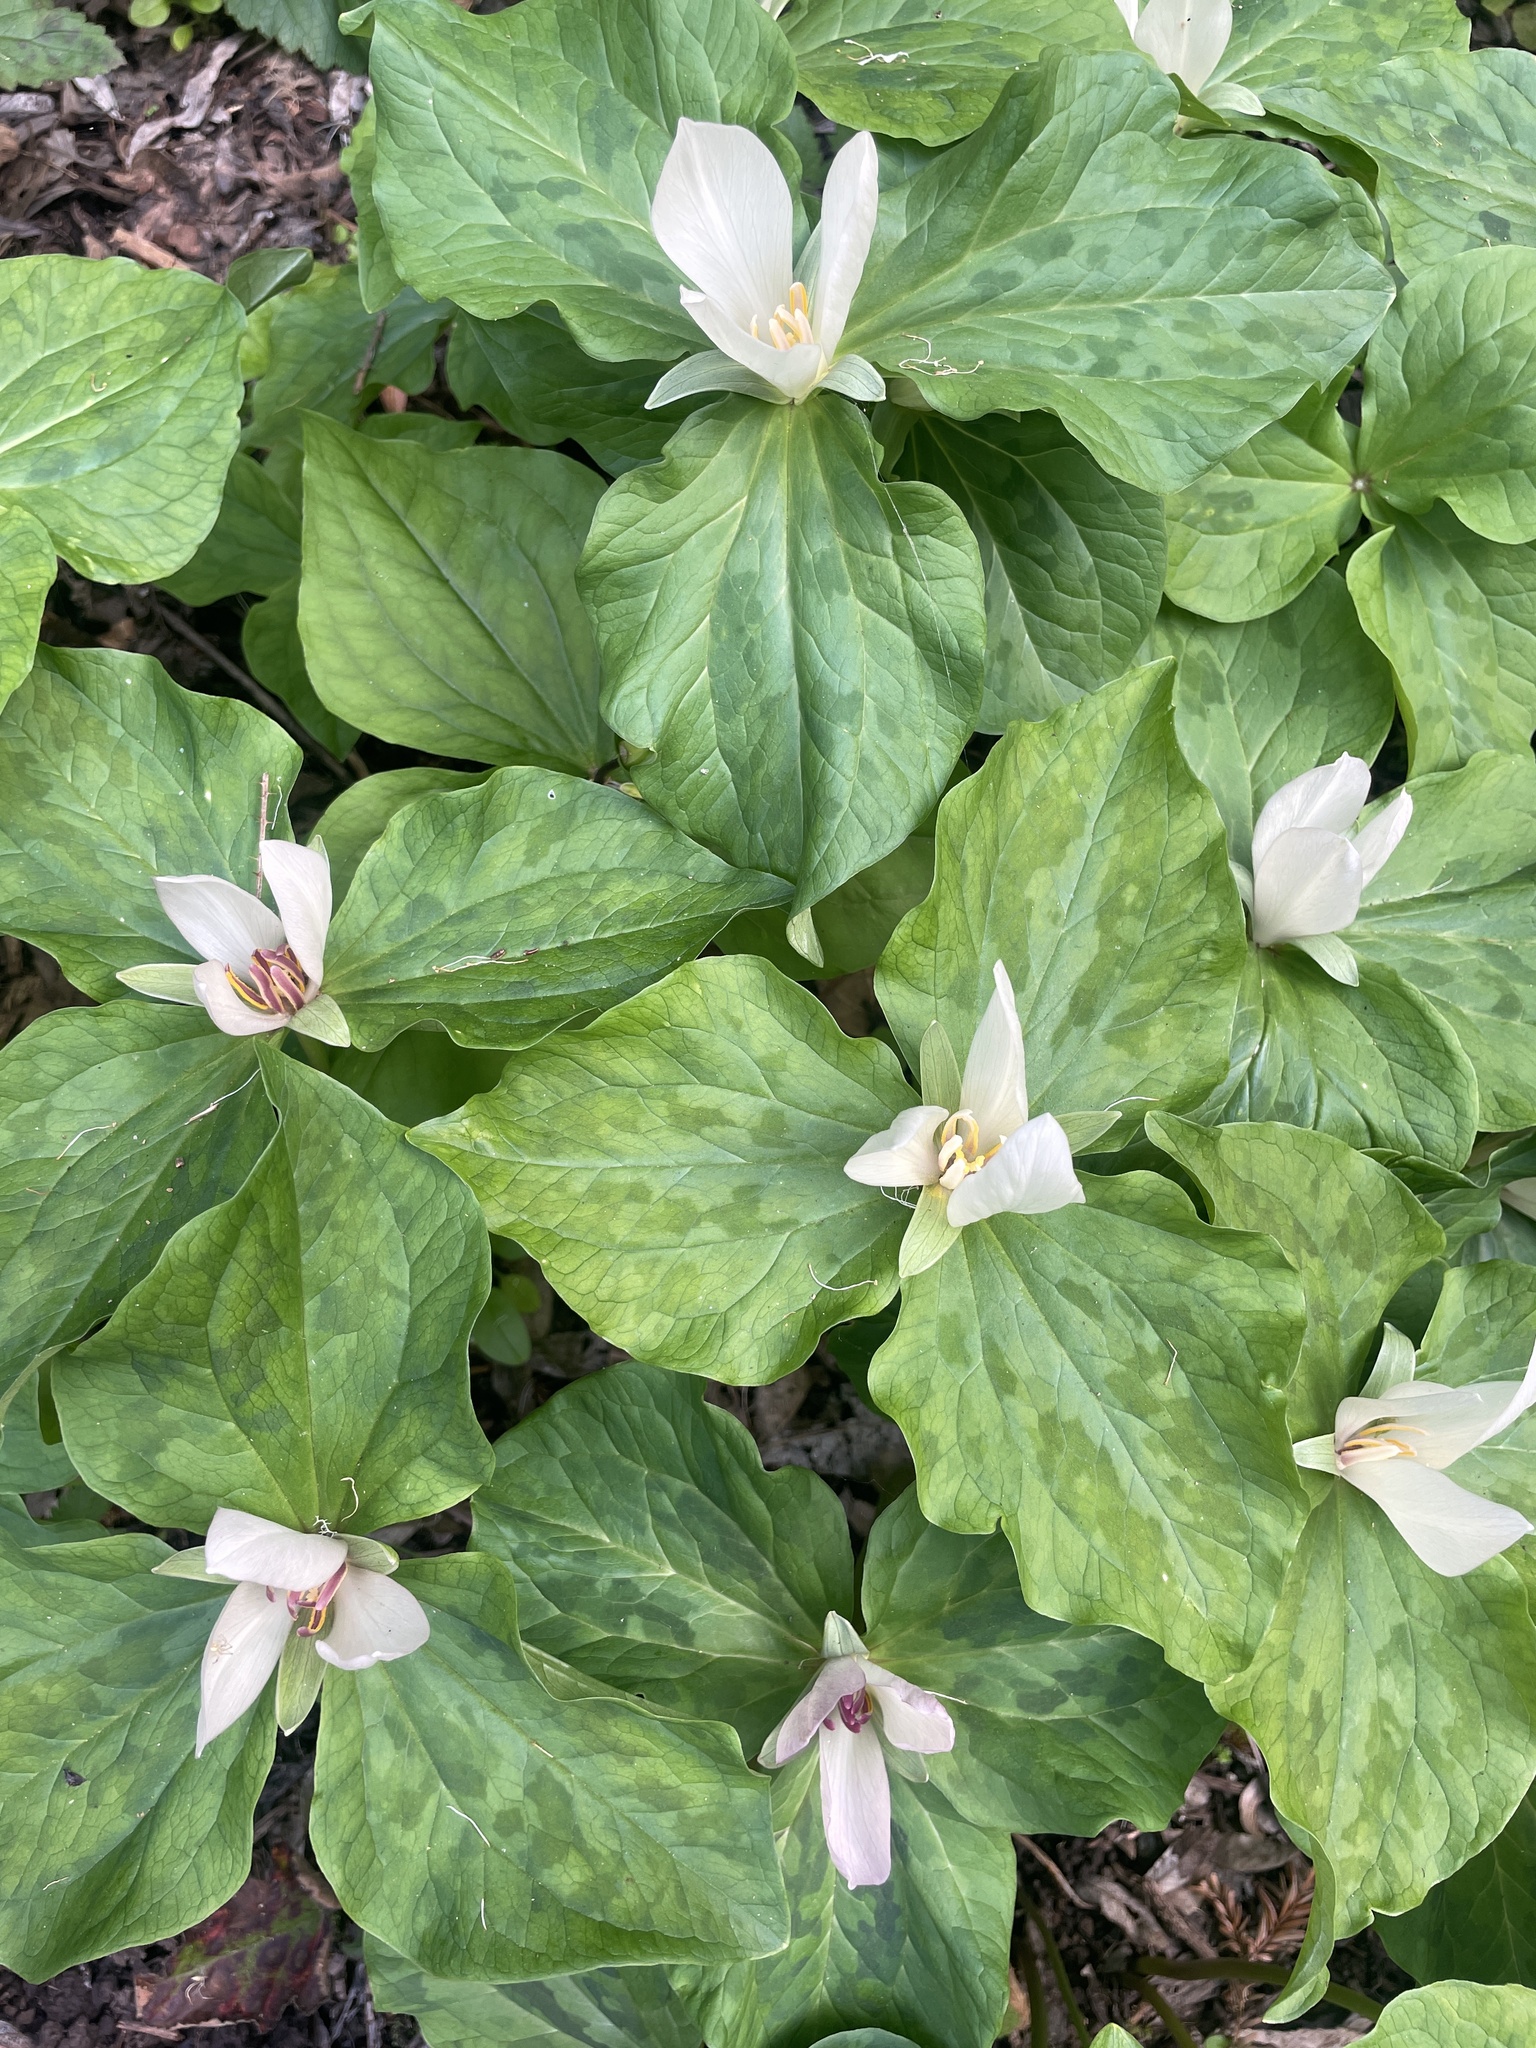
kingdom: Plantae
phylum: Tracheophyta
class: Liliopsida
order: Liliales
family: Melanthiaceae
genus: Trillium
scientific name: Trillium chloropetalum
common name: Giant trillium
